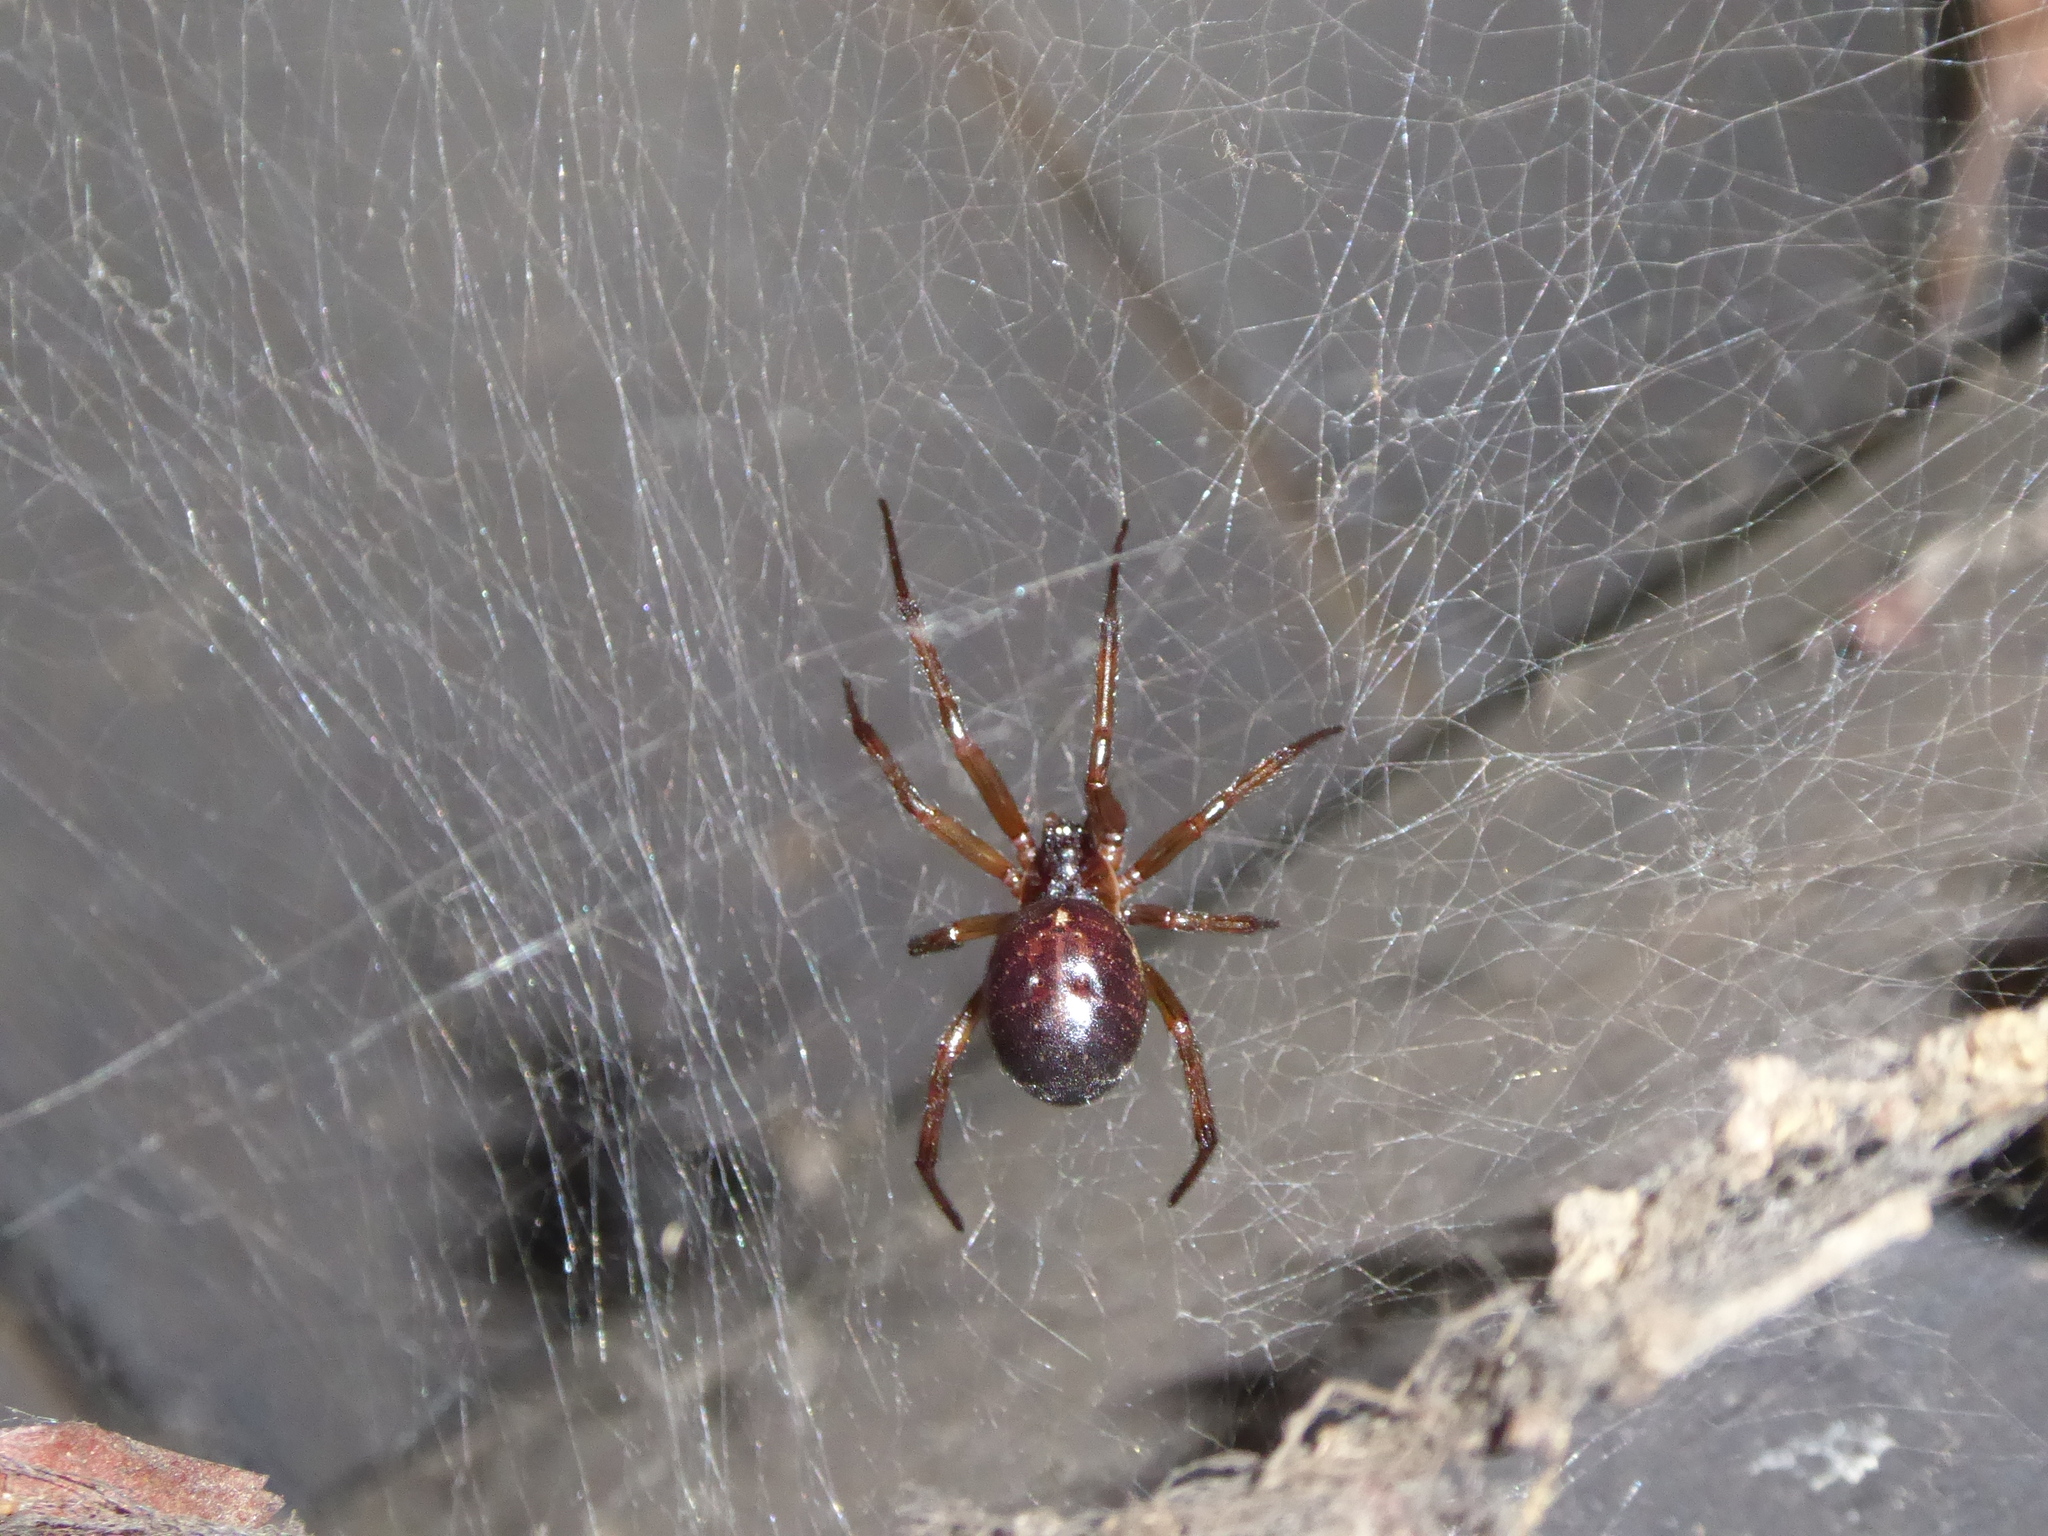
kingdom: Animalia
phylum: Arthropoda
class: Arachnida
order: Araneae
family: Theridiidae
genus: Steatoda
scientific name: Steatoda nobilis
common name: Cobweb weaver
